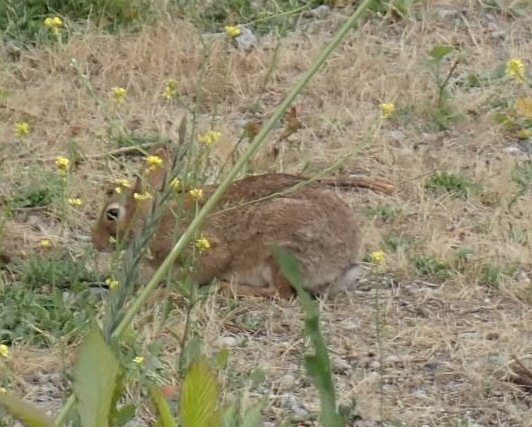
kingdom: Animalia
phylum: Chordata
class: Mammalia
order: Lagomorpha
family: Leporidae
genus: Sylvilagus
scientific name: Sylvilagus floridanus
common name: Eastern cottontail
